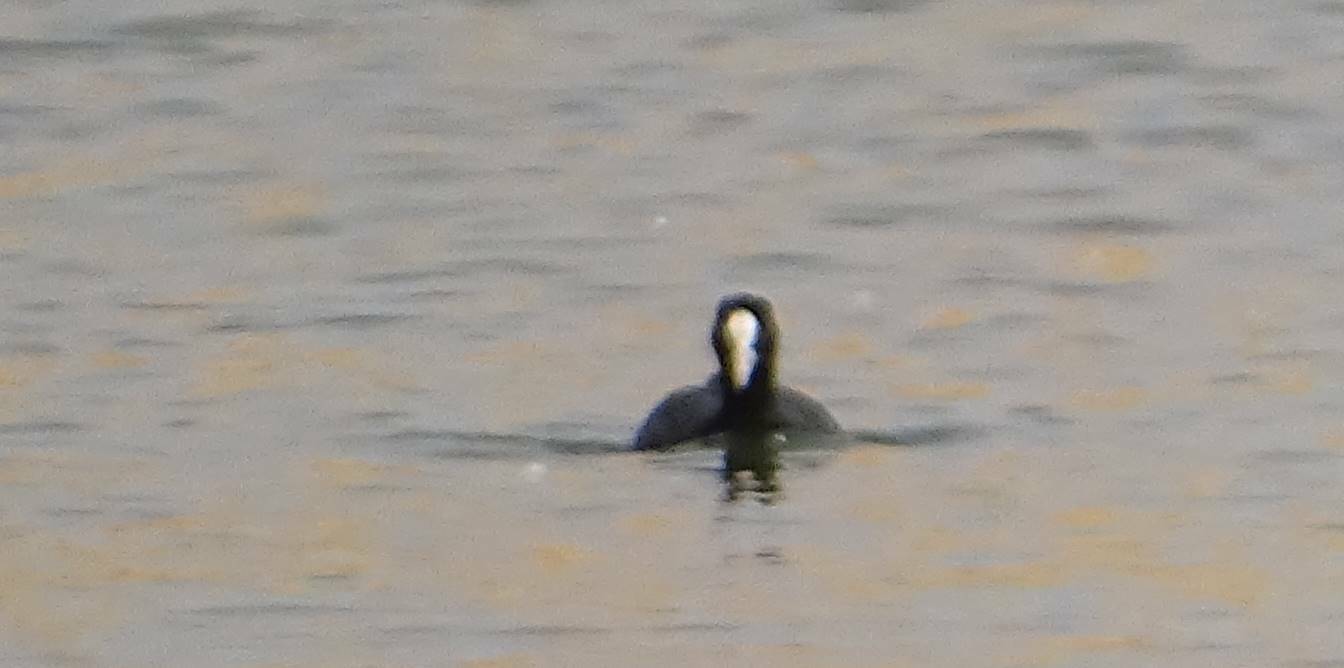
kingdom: Animalia
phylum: Chordata
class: Aves
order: Gruiformes
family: Rallidae
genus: Fulica
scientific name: Fulica atra
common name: Eurasian coot
